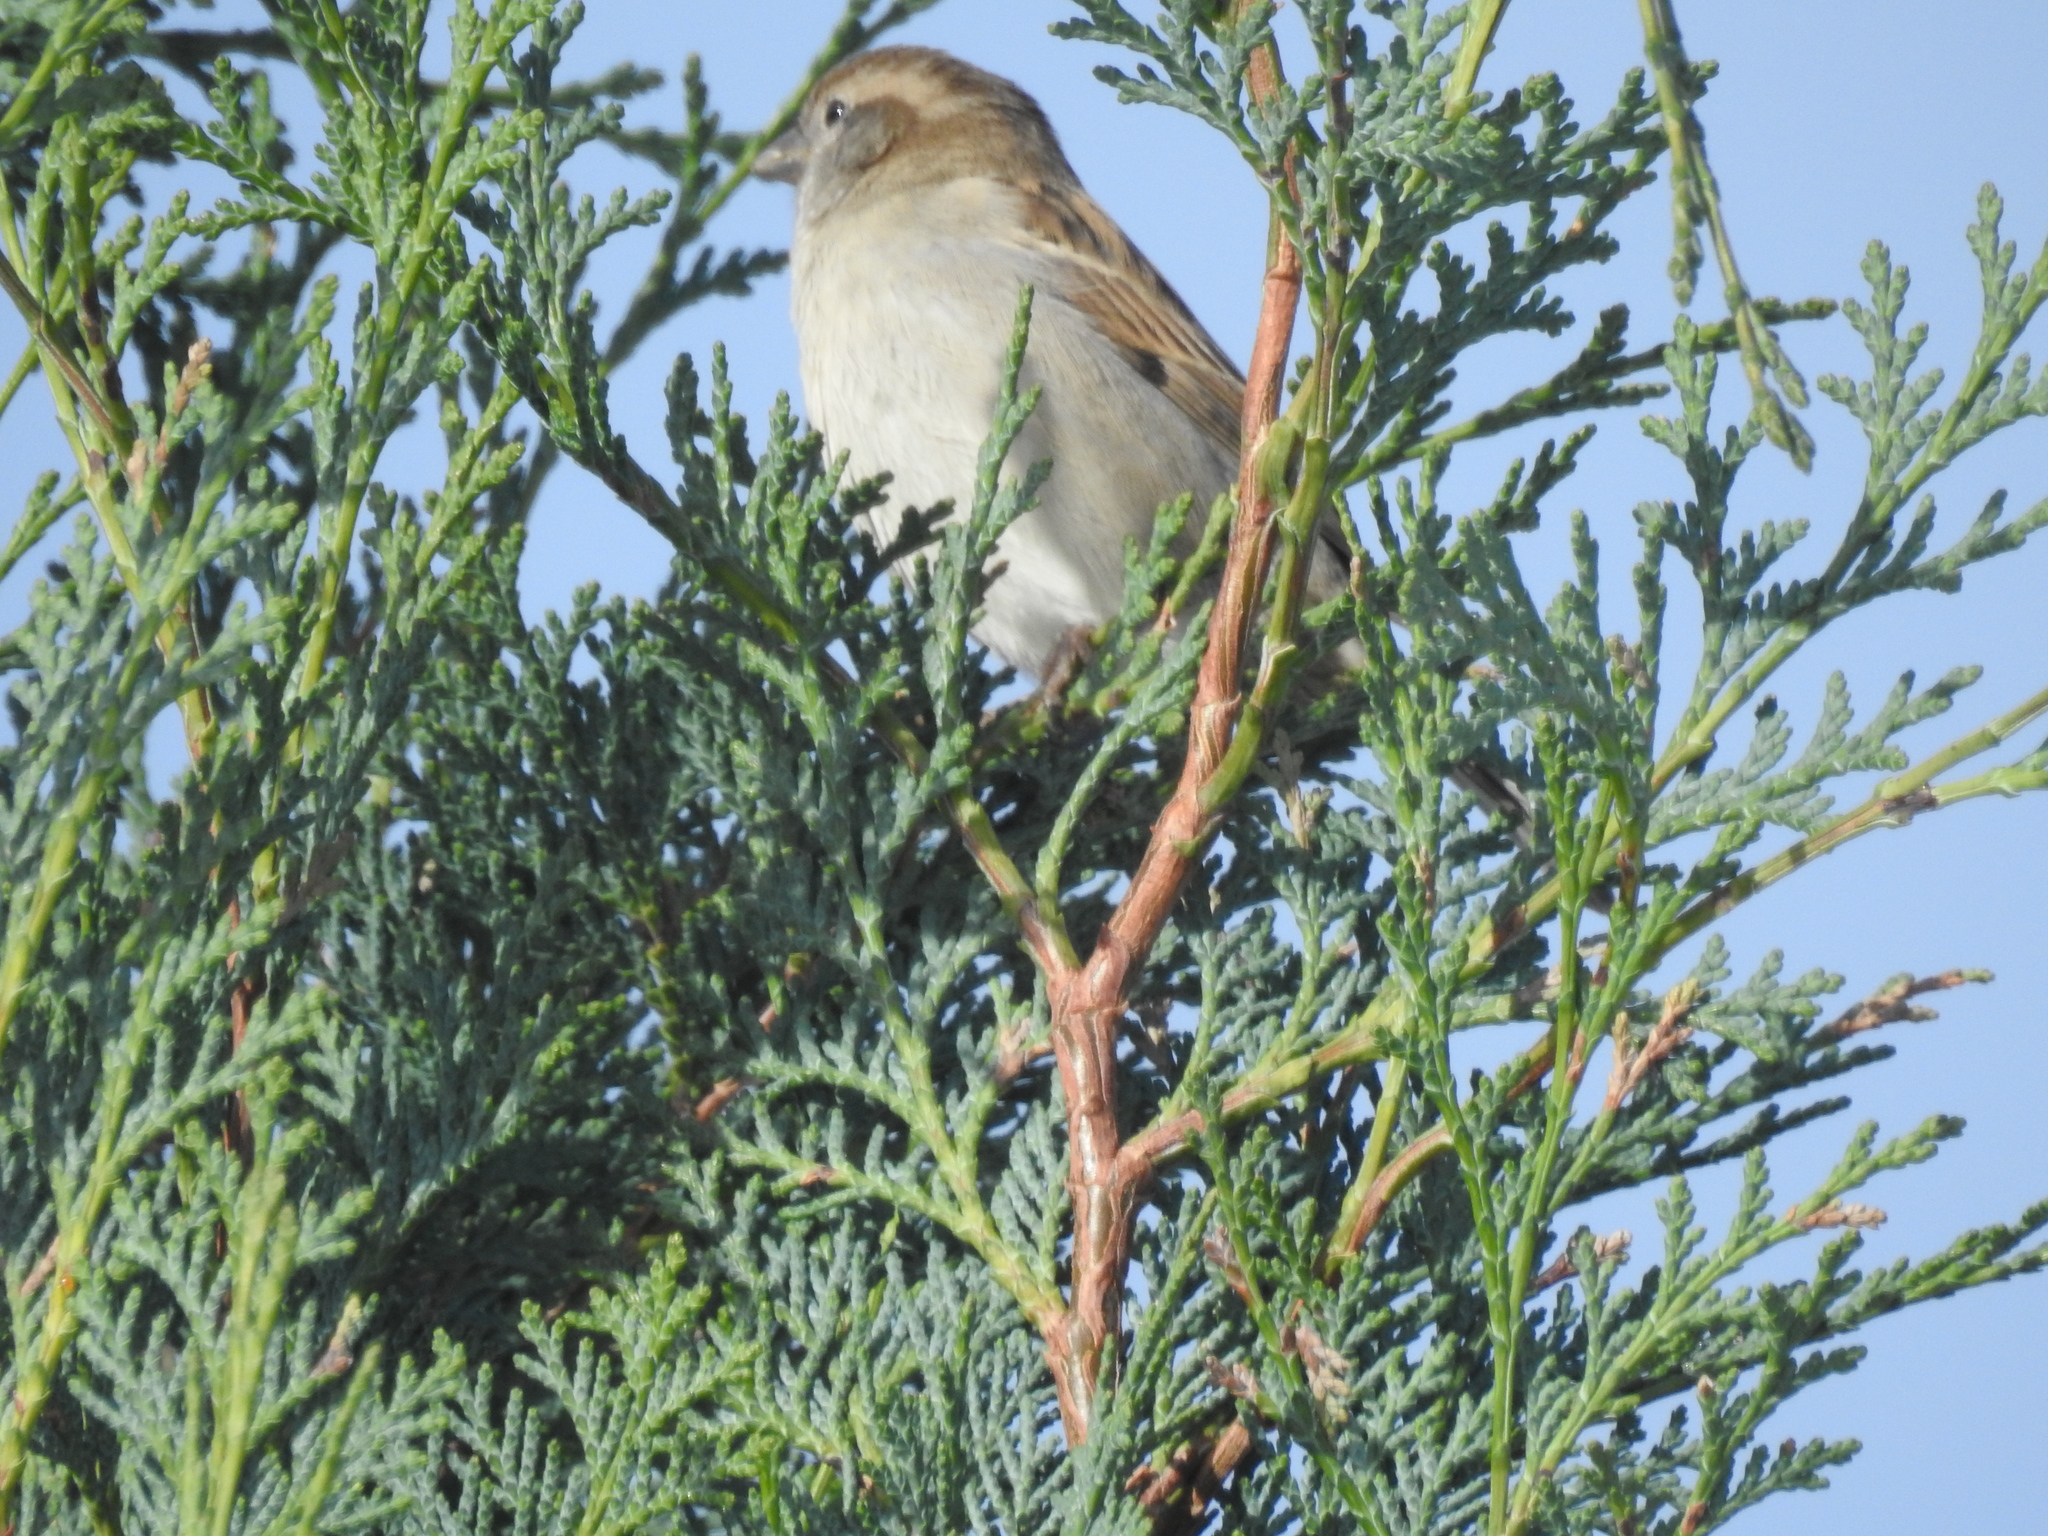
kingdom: Animalia
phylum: Chordata
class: Aves
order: Passeriformes
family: Passeridae
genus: Passer
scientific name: Passer domesticus
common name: House sparrow
